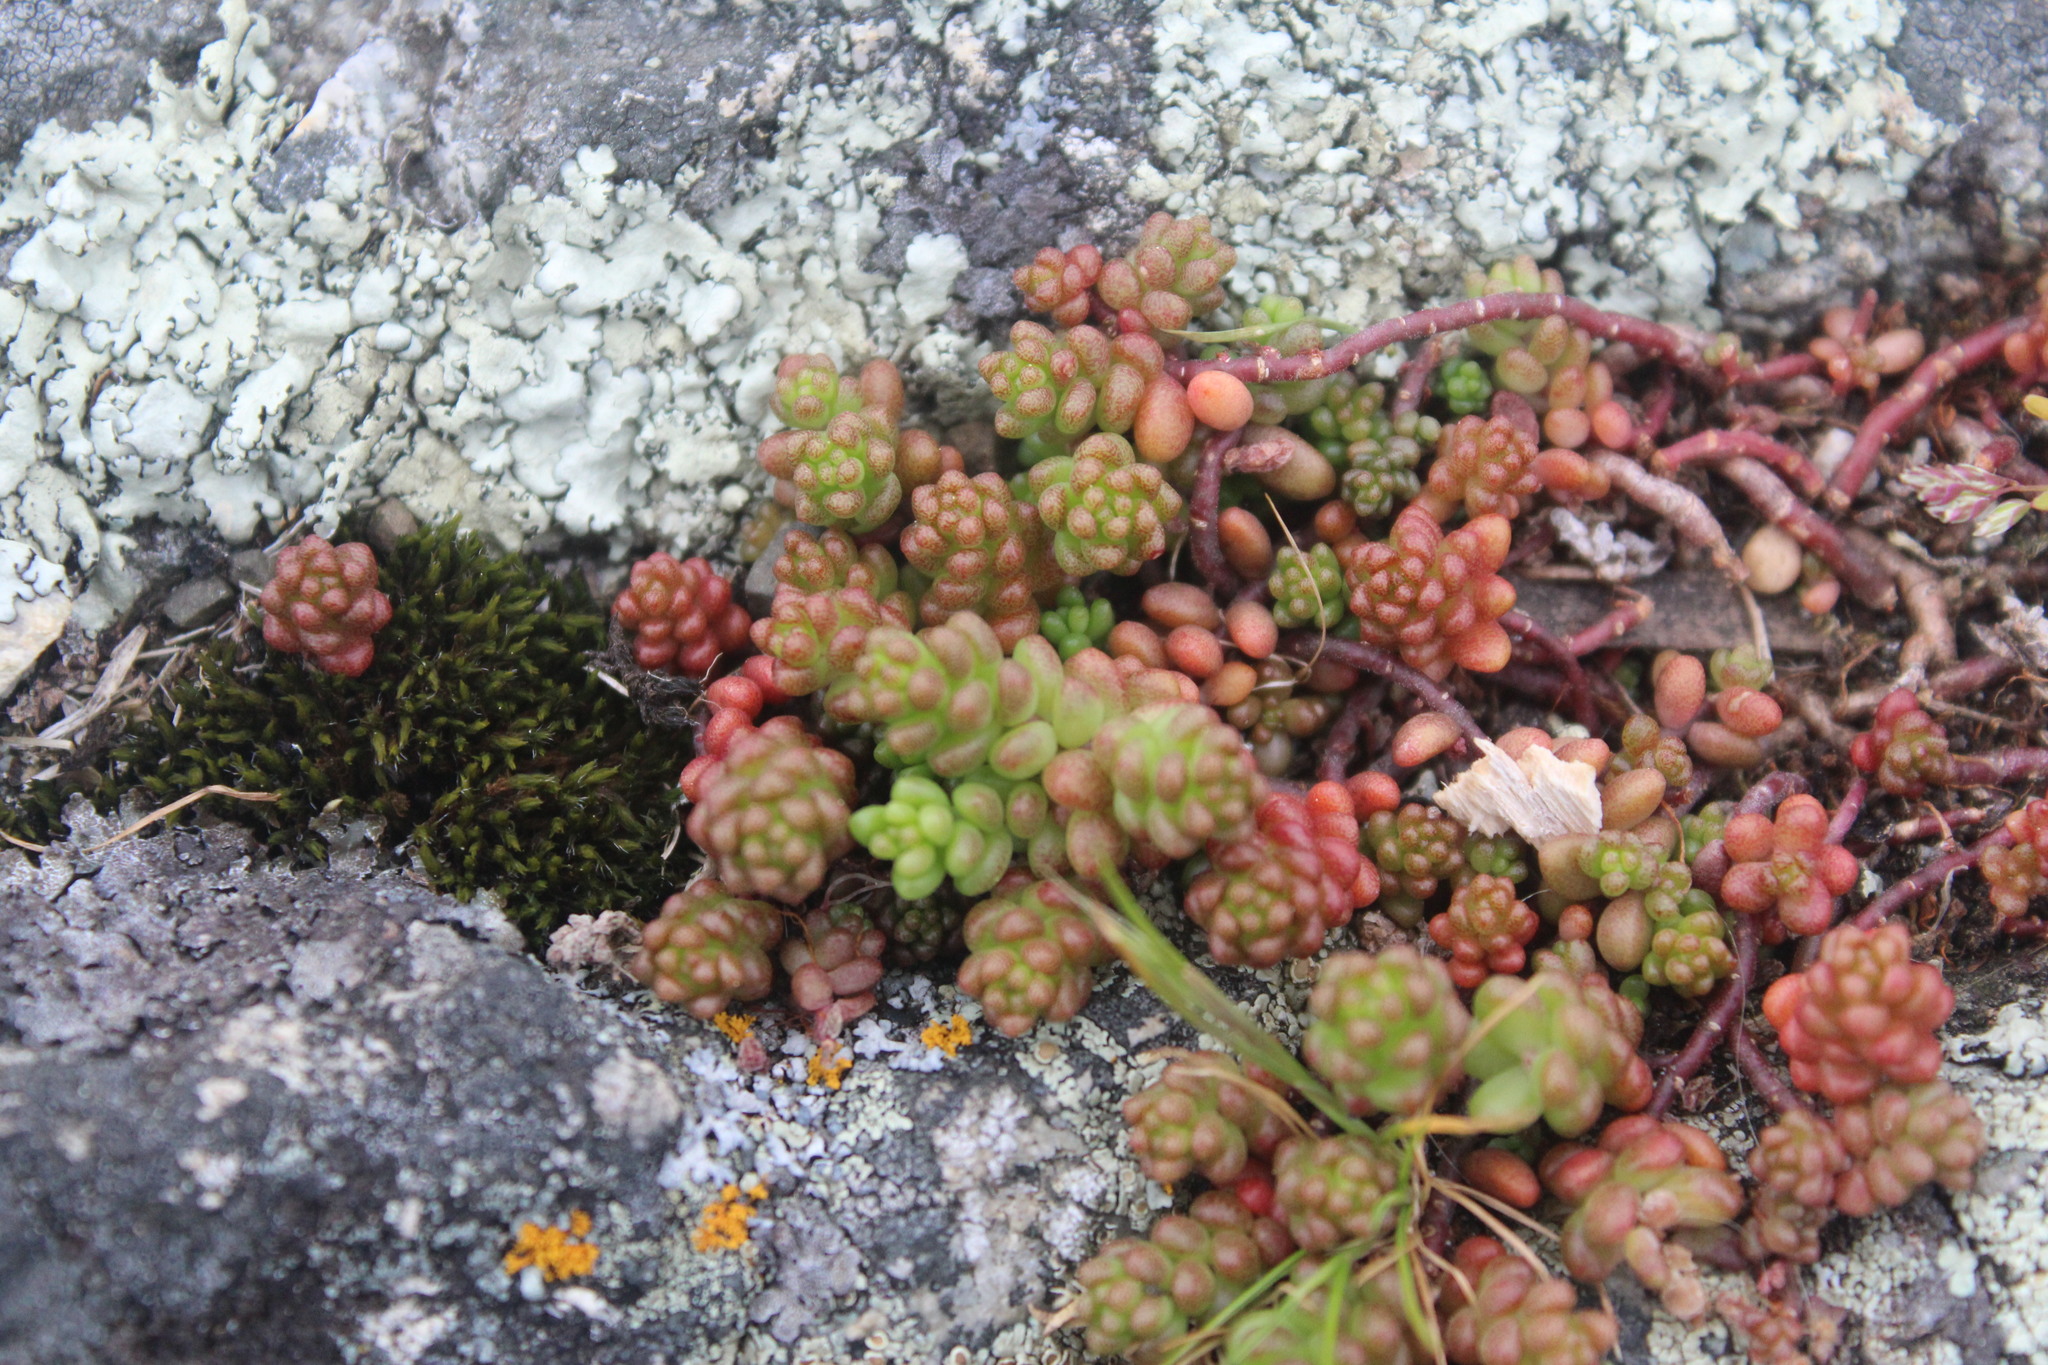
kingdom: Plantae
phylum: Tracheophyta
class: Magnoliopsida
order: Saxifragales
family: Crassulaceae
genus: Sedum
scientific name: Sedum album
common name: White stonecrop
